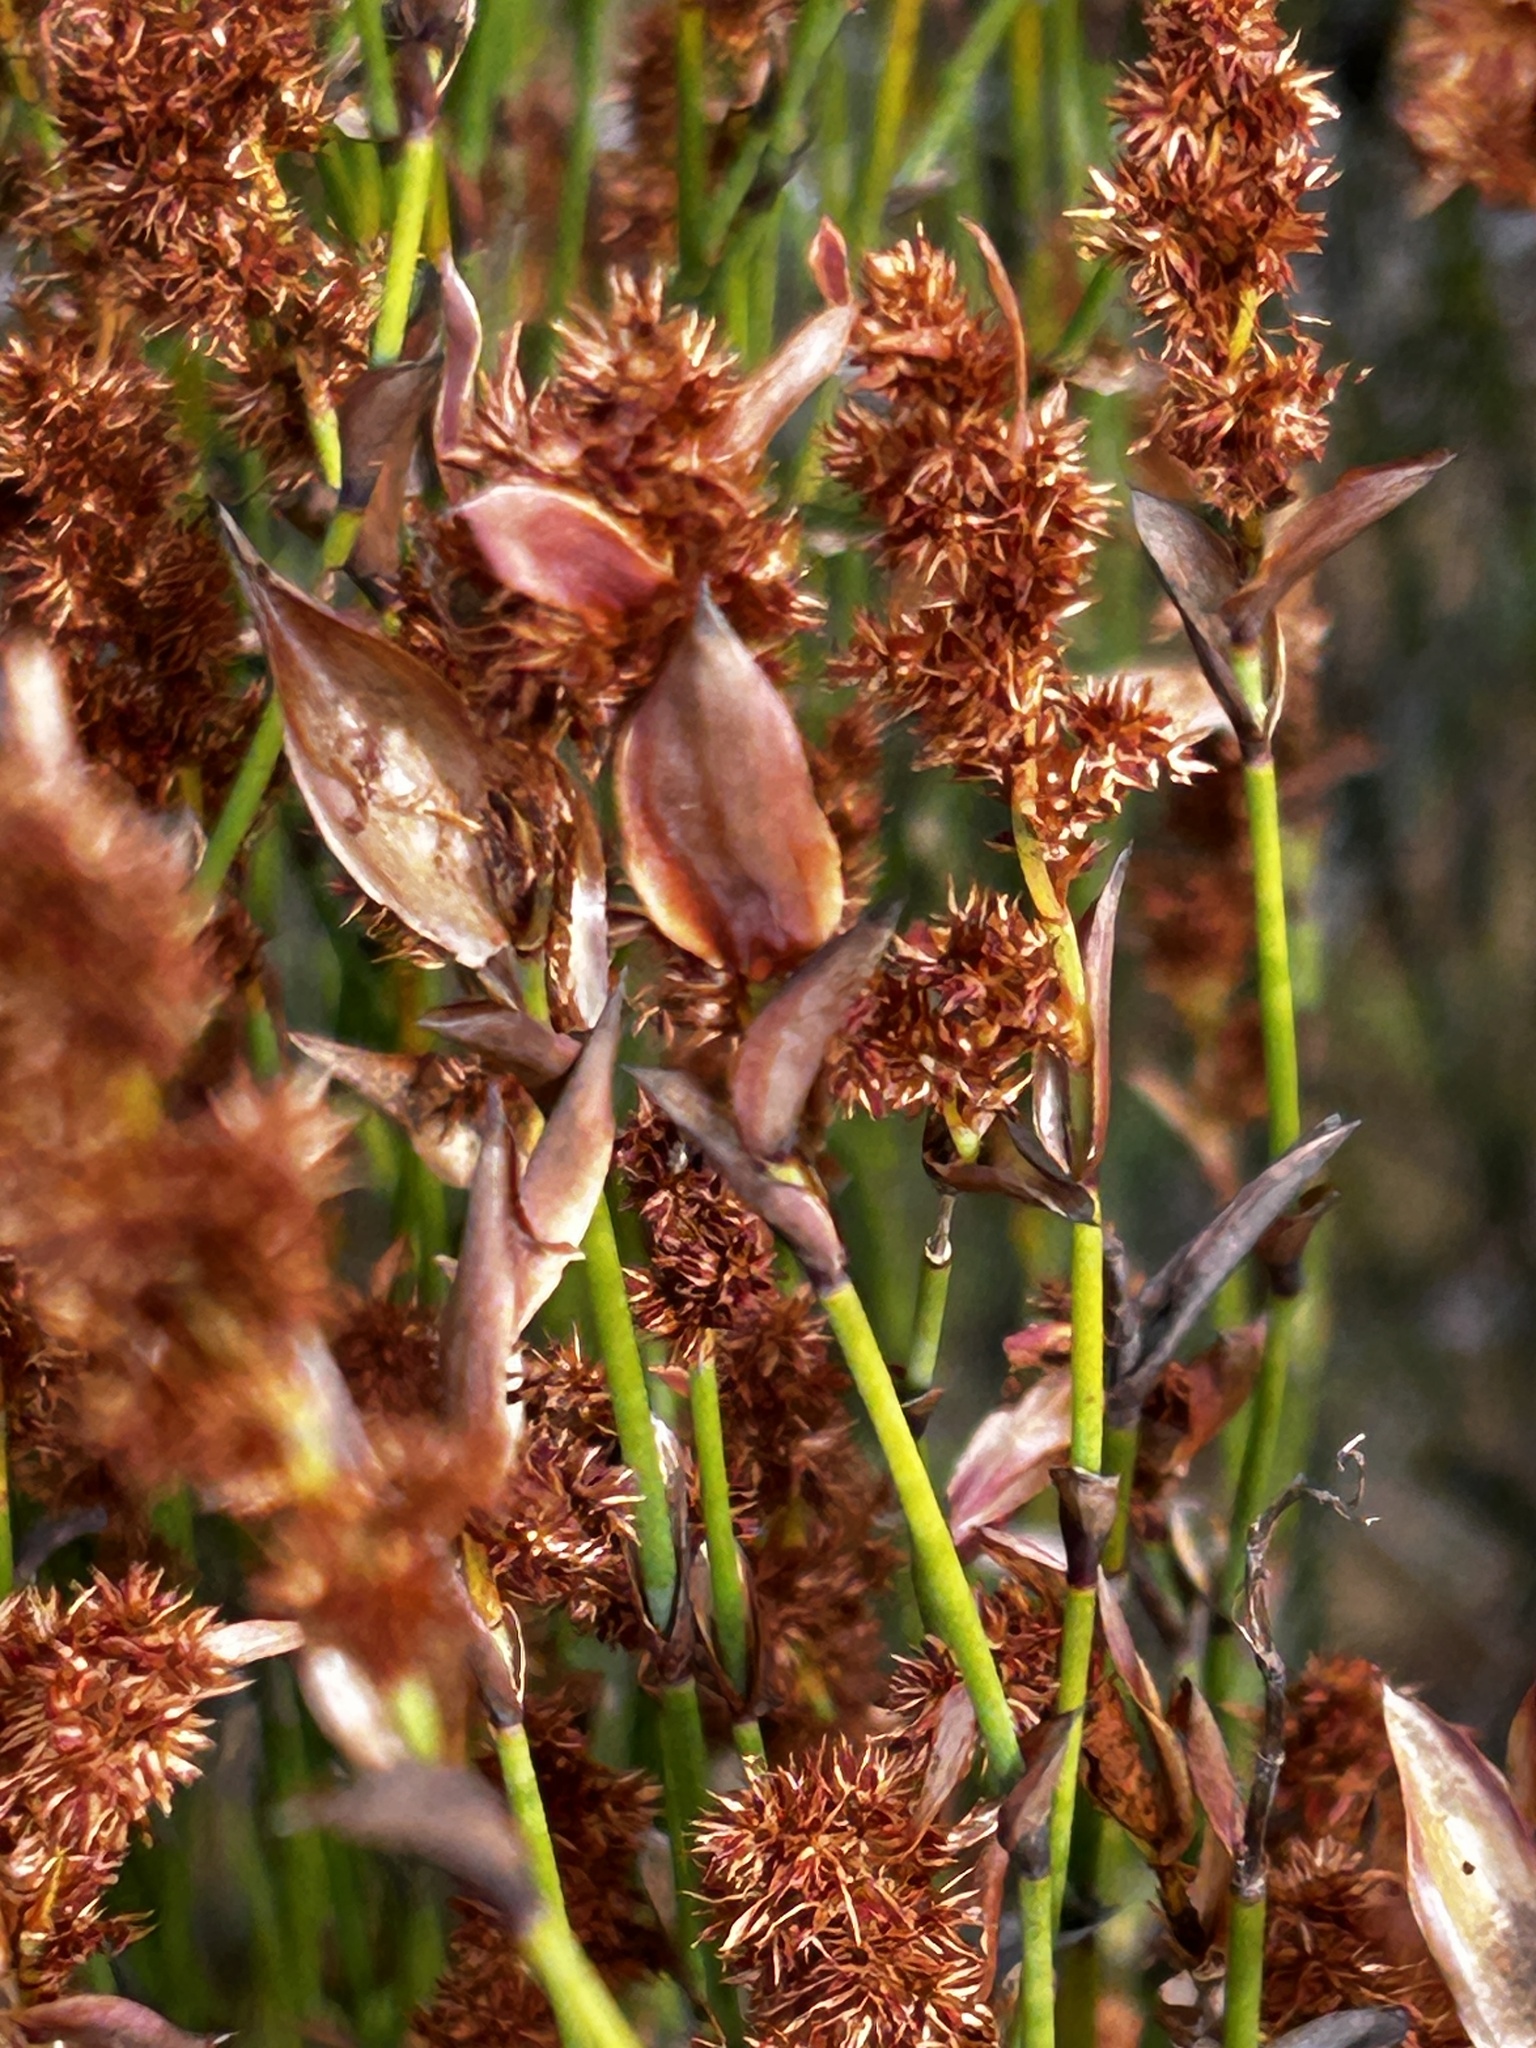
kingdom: Plantae
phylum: Tracheophyta
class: Liliopsida
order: Poales
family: Restionaceae
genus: Elegia
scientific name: Elegia muirii
